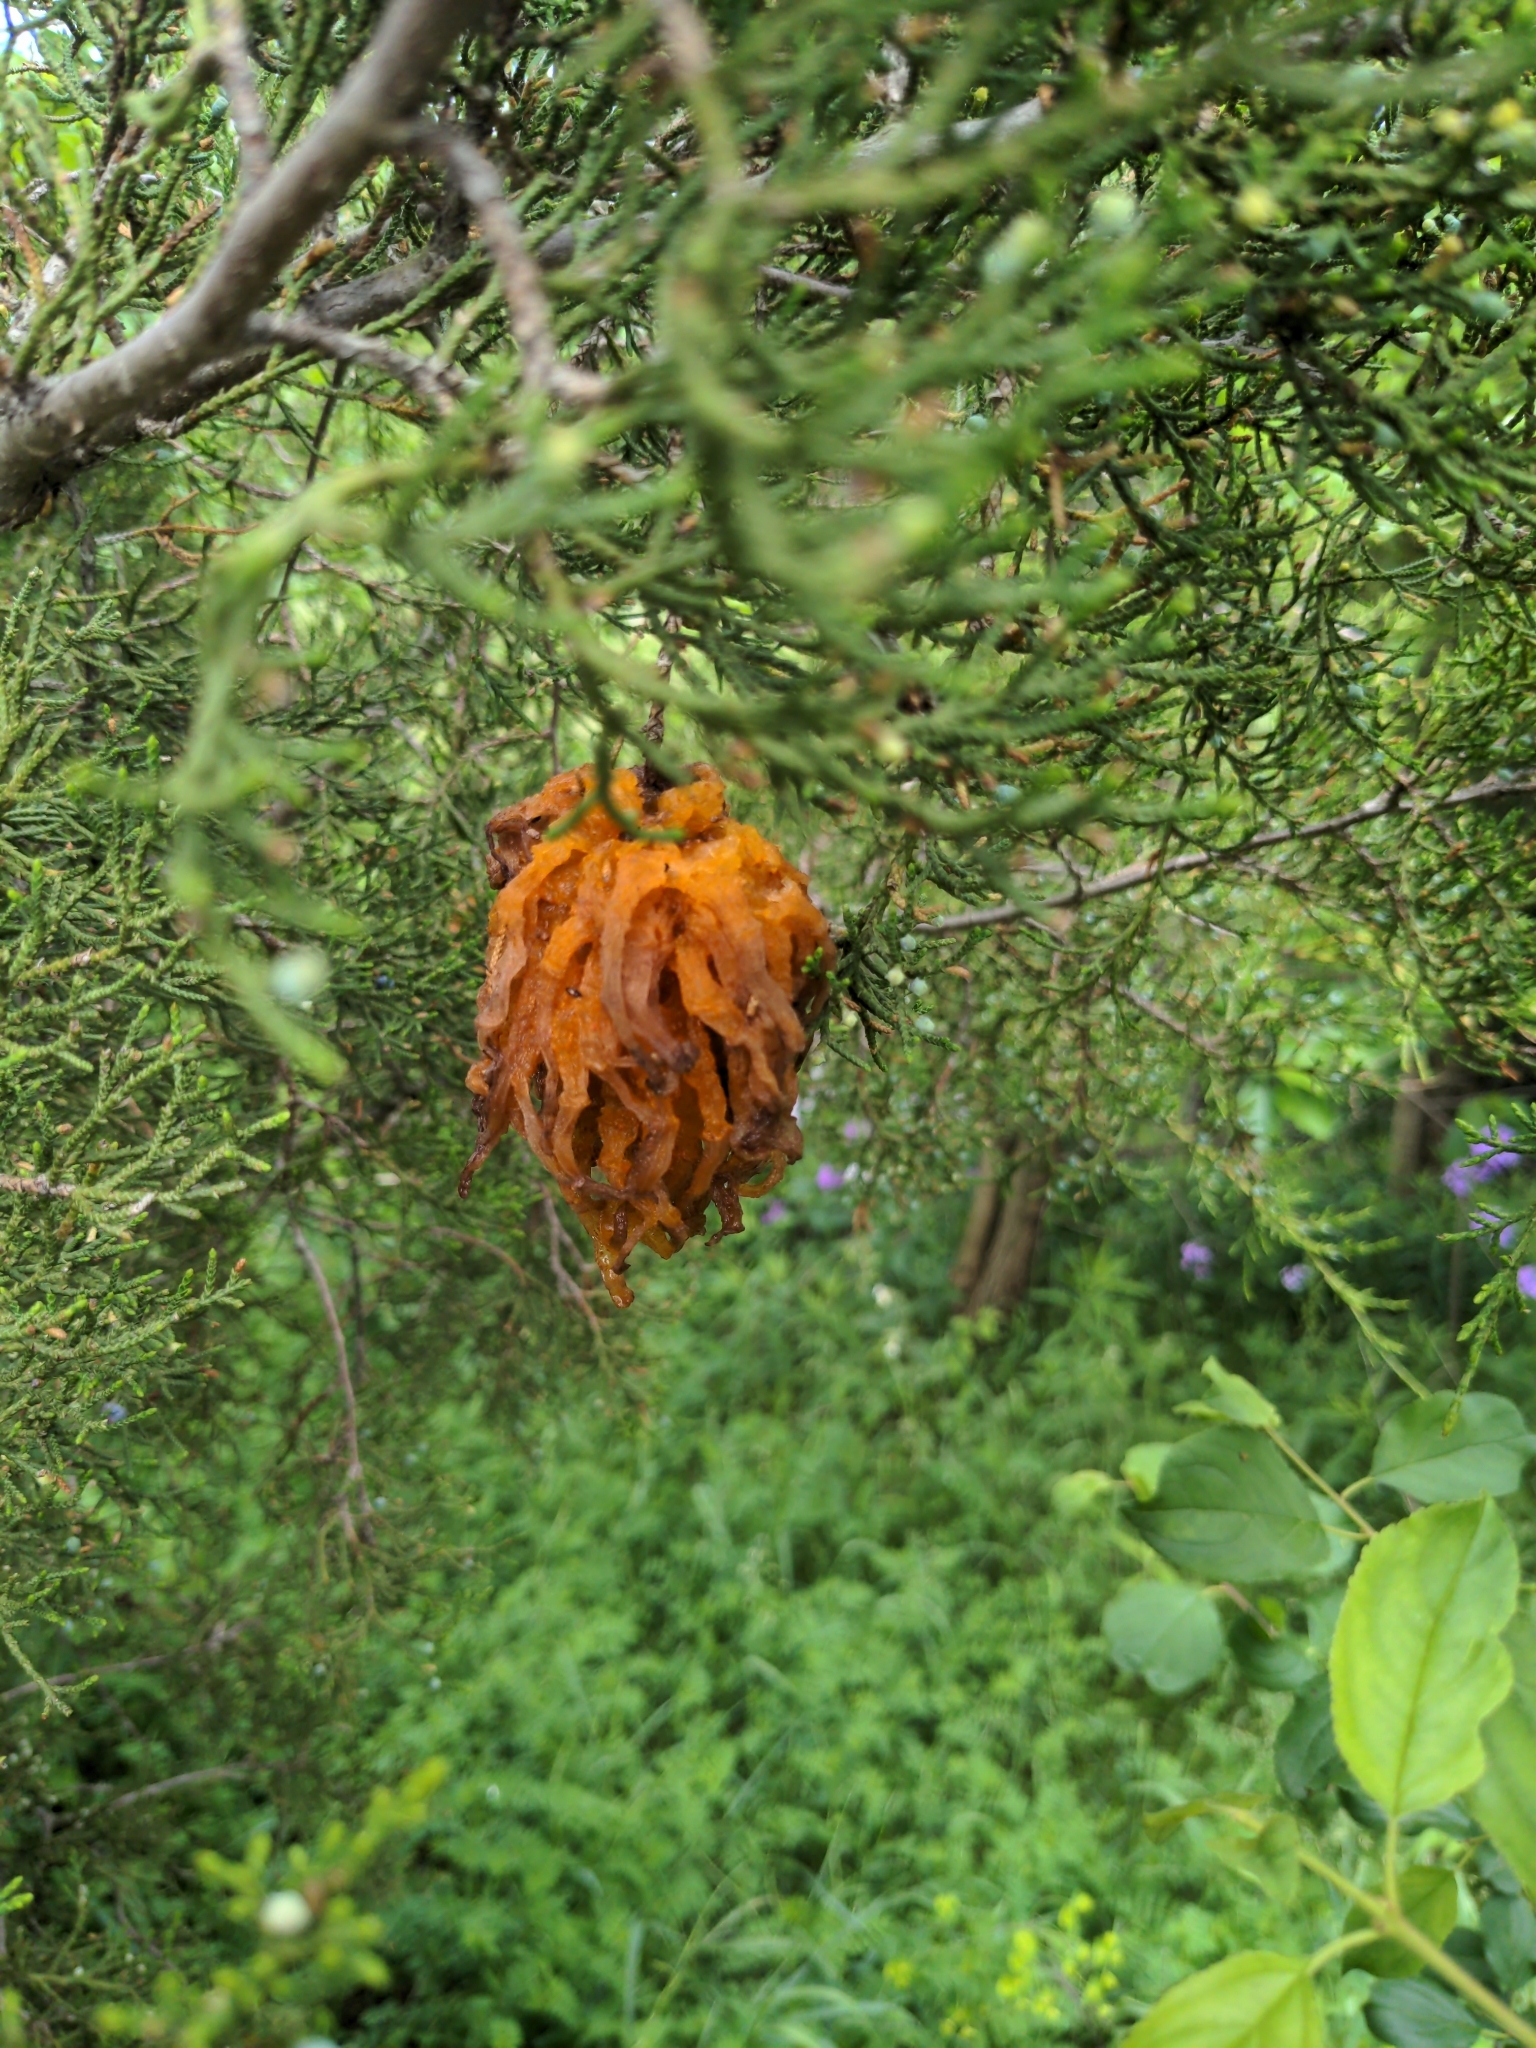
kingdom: Fungi
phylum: Basidiomycota
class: Pucciniomycetes
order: Pucciniales
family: Gymnosporangiaceae
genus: Gymnosporangium
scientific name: Gymnosporangium juniperi-virginianae
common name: Juniper-apple rust
